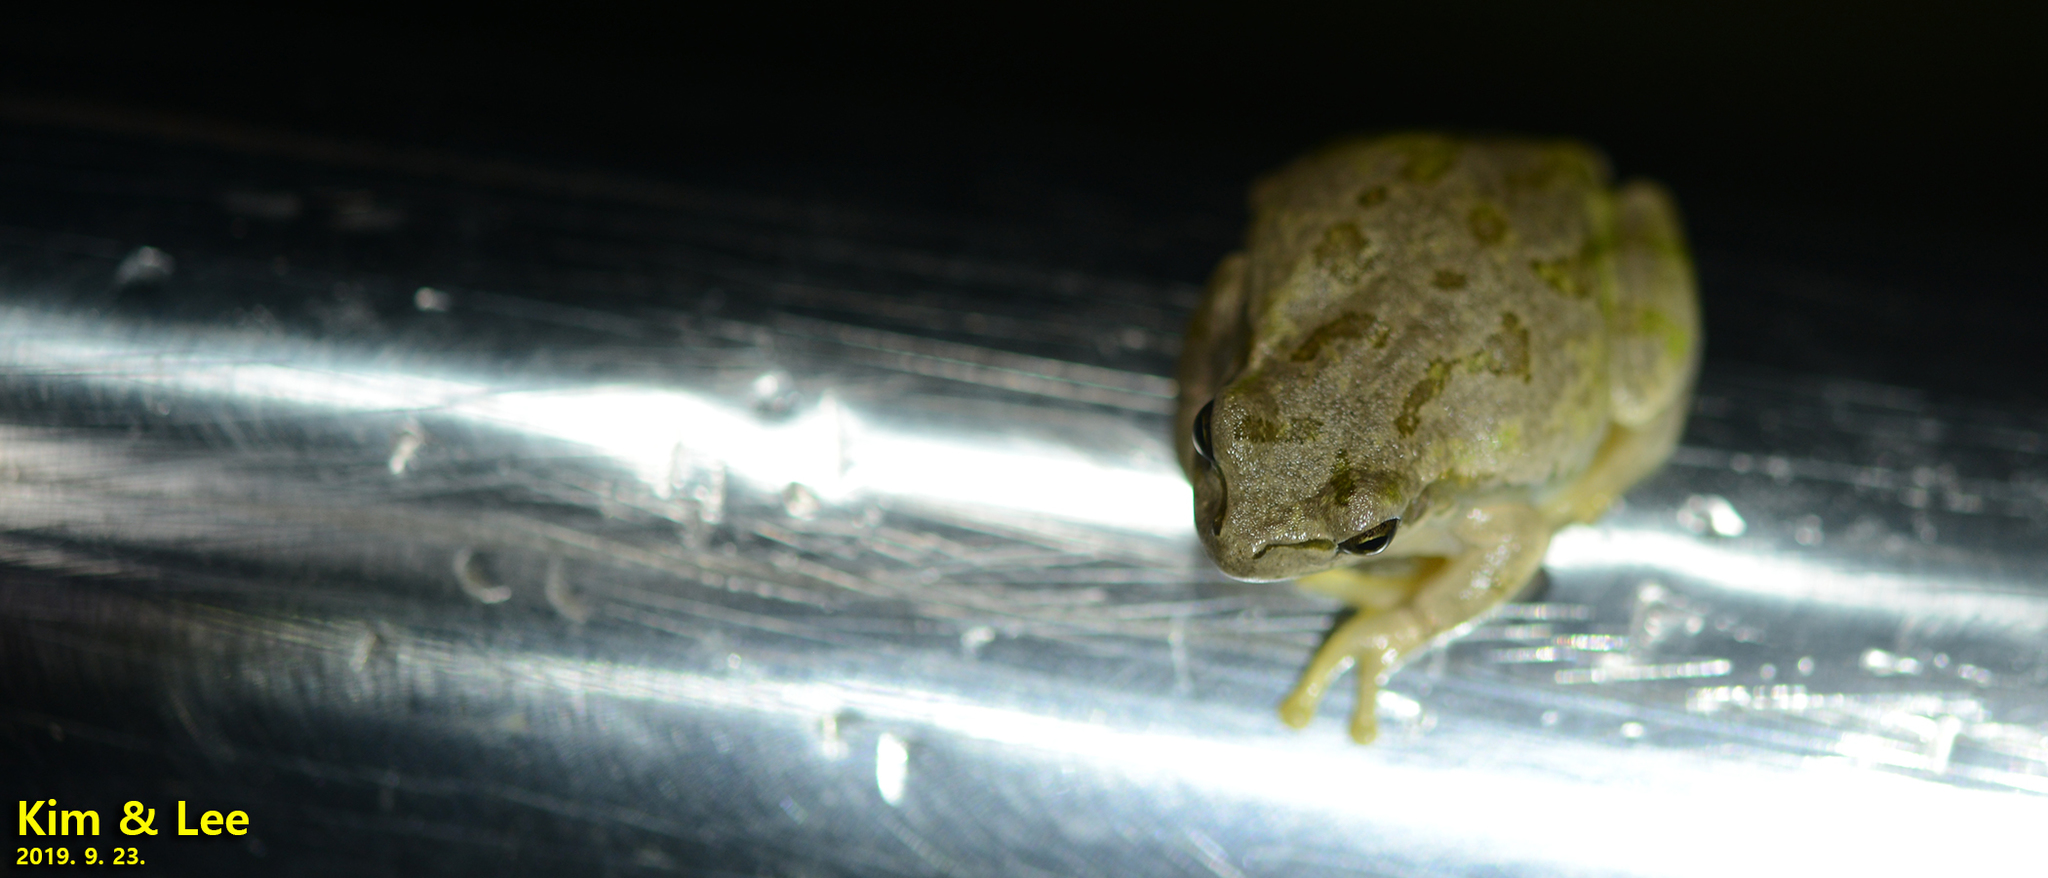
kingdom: Animalia
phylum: Chordata
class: Amphibia
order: Anura
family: Hylidae
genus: Dryophytes
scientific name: Dryophytes japonicus
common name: Japanese treefrog
